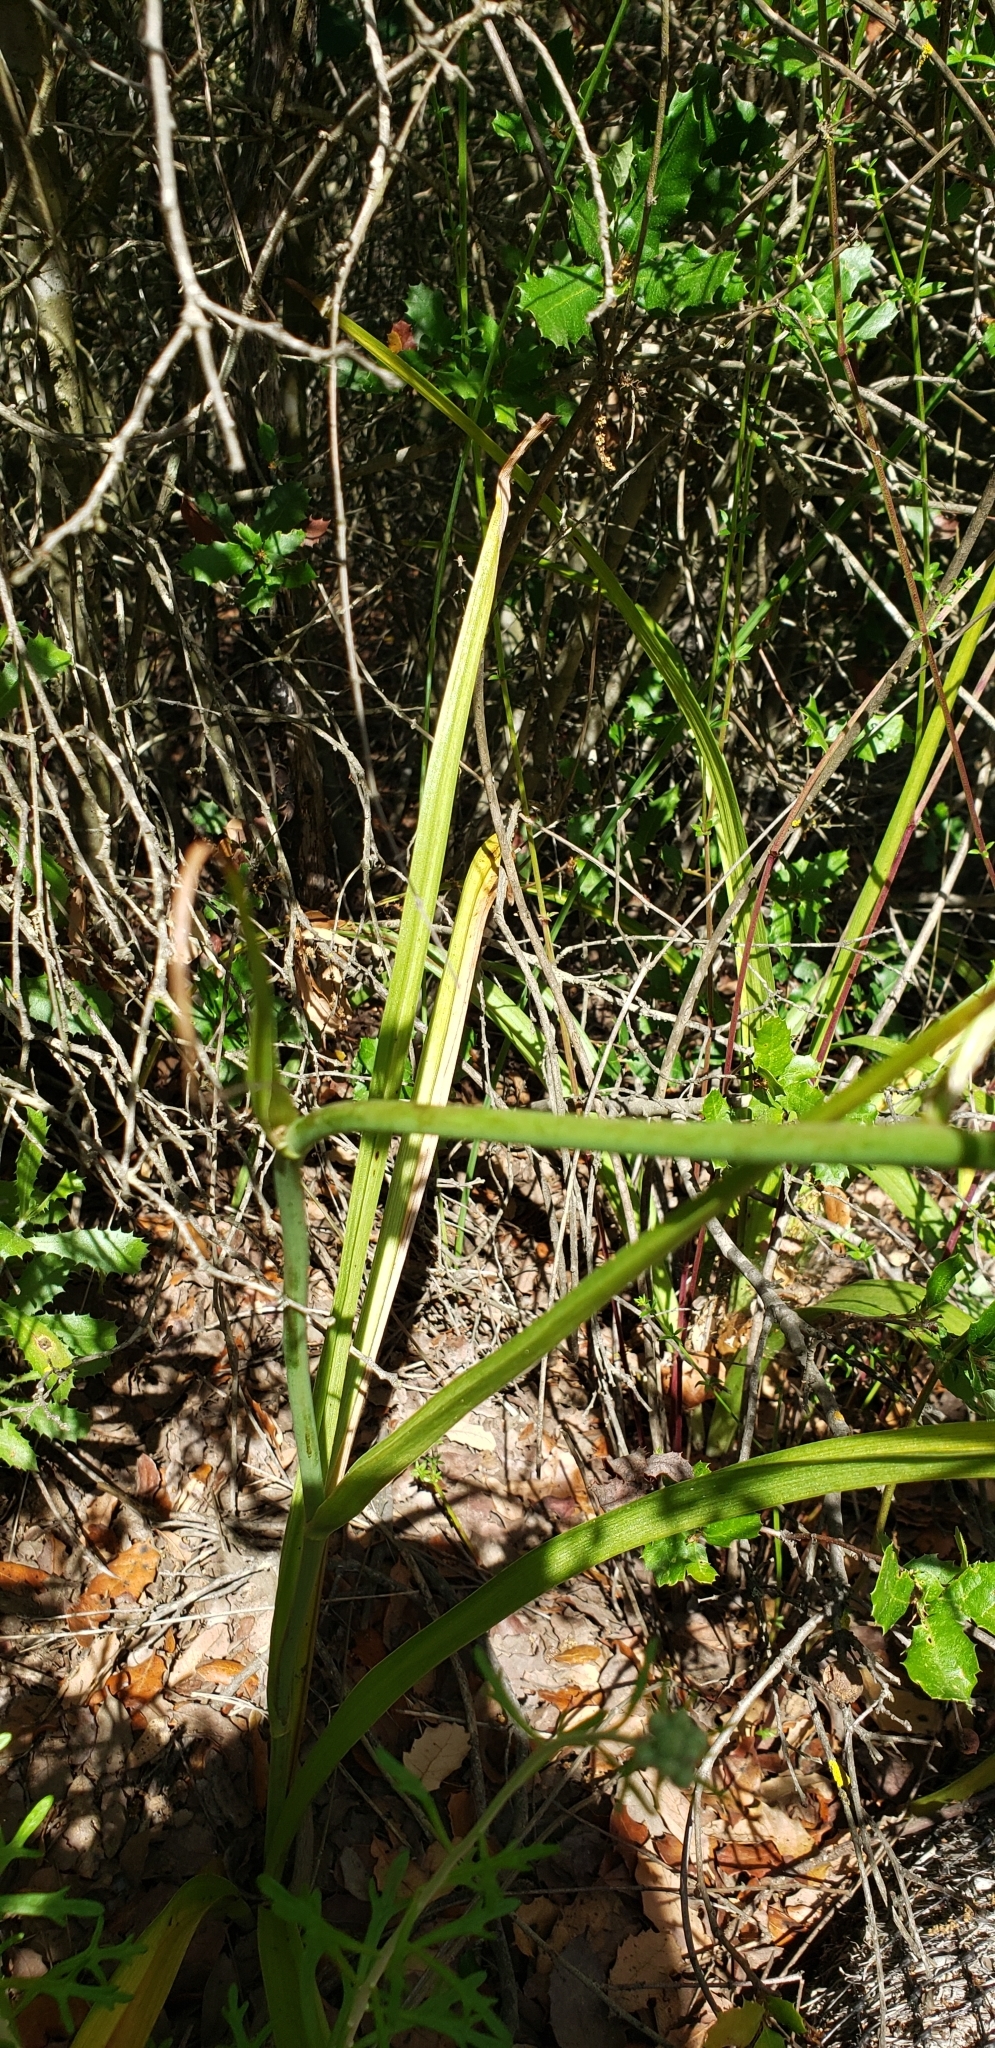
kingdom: Plantae
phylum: Tracheophyta
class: Liliopsida
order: Liliales
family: Melanthiaceae
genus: Toxicoscordion
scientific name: Toxicoscordion fremontii
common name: Fremont's death camas
